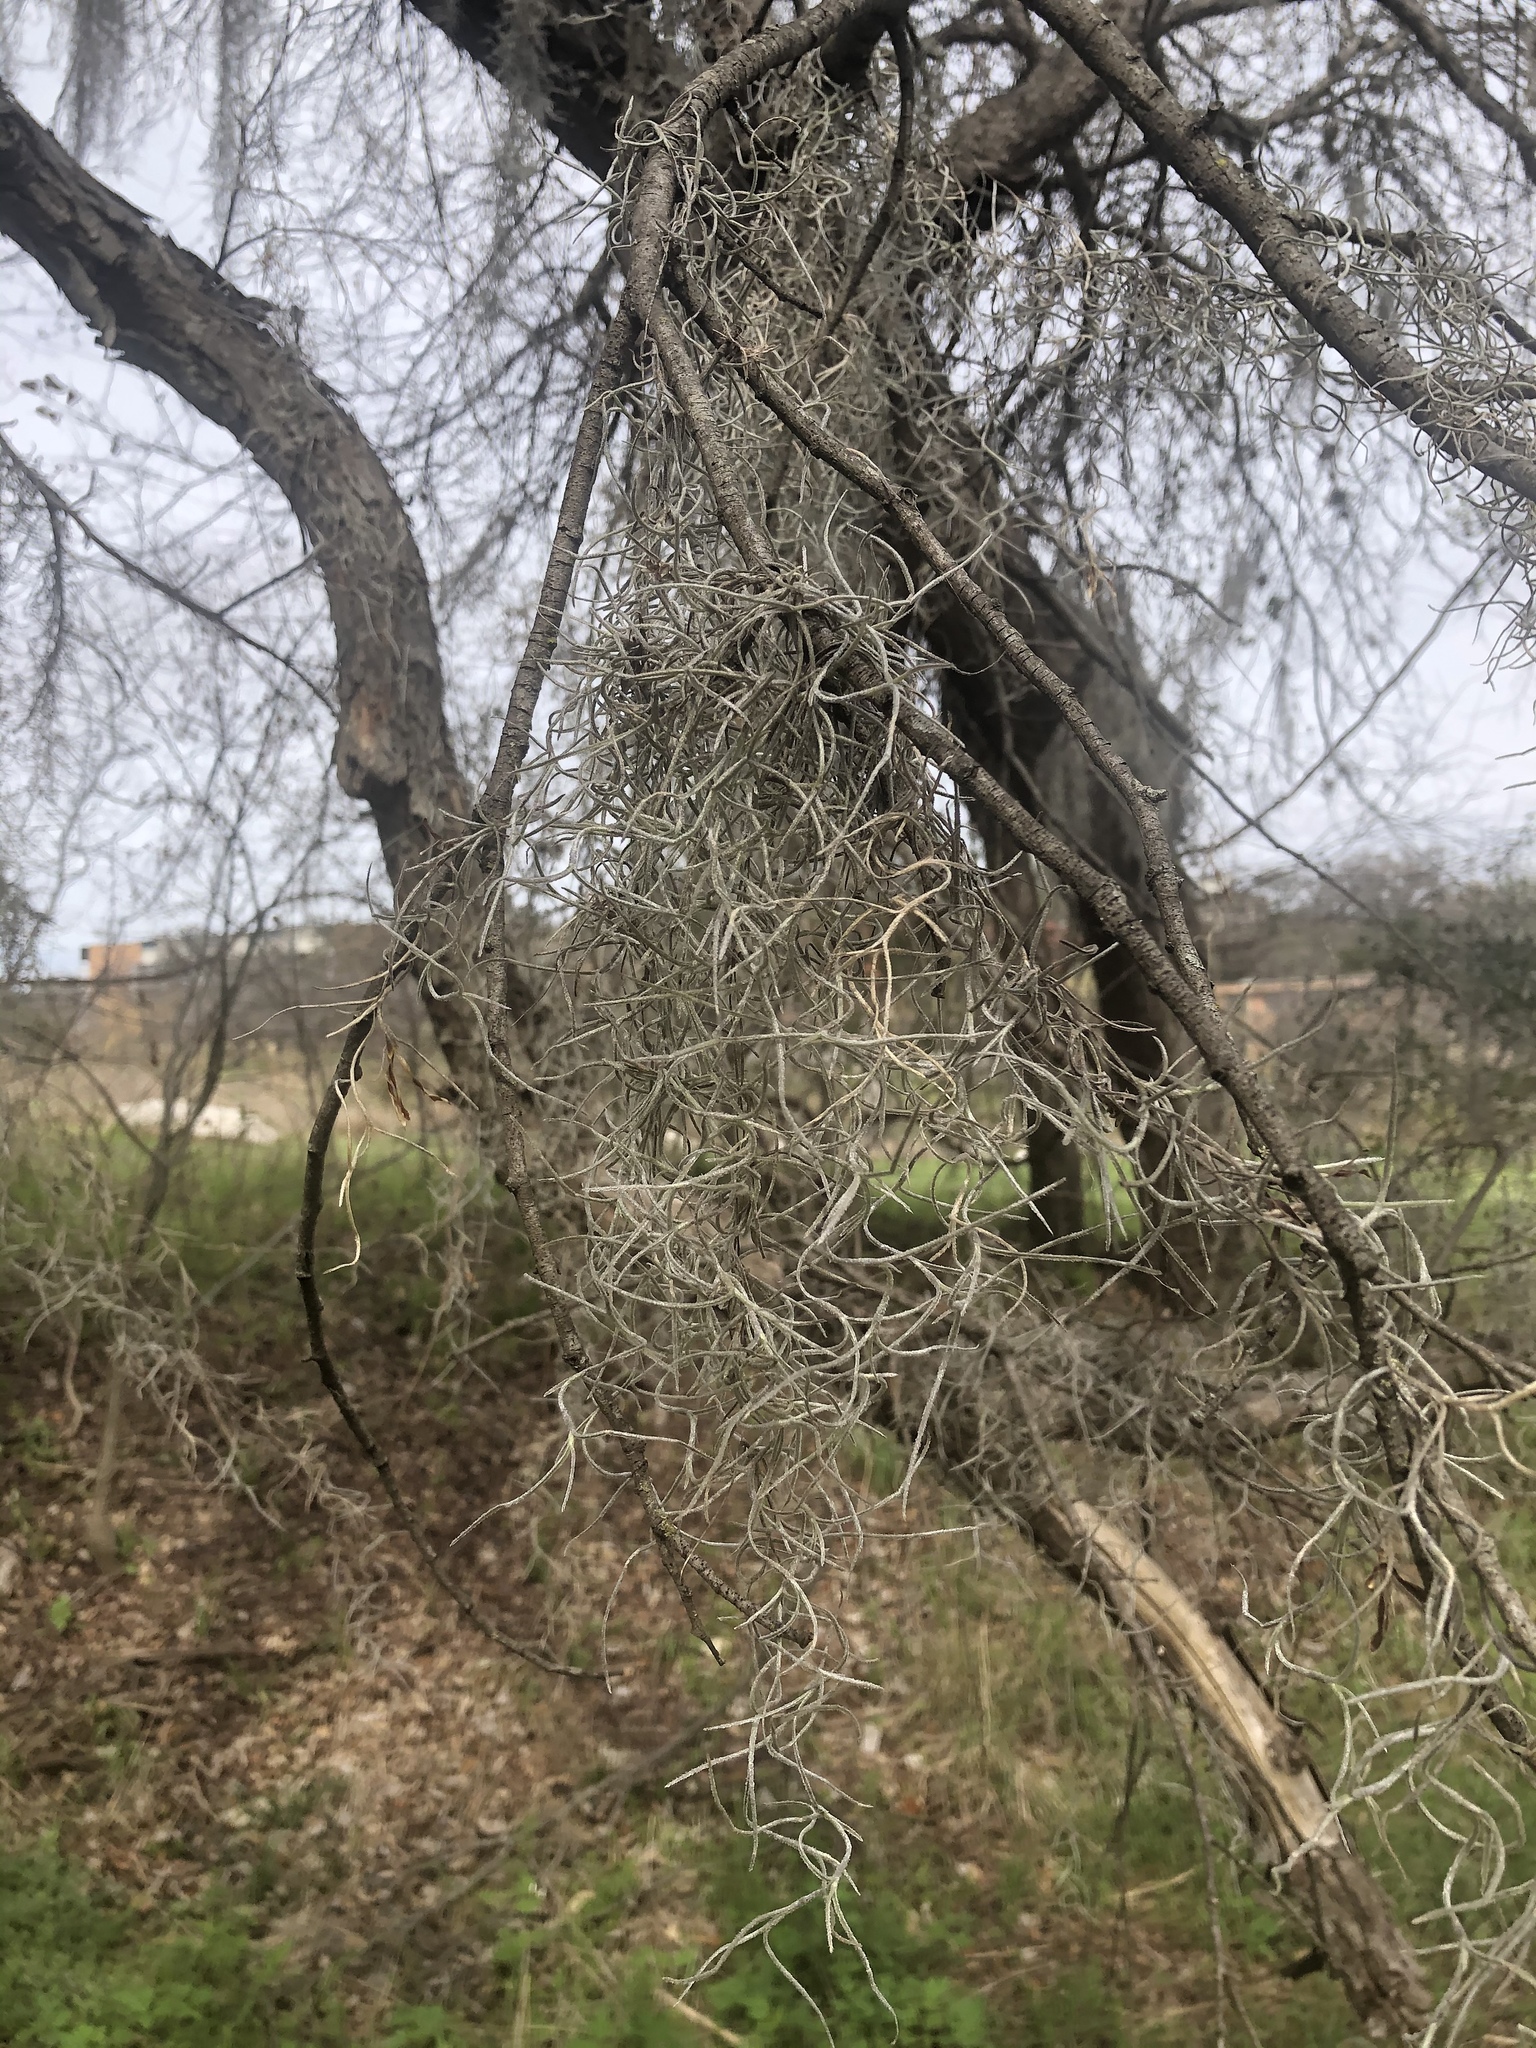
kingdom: Plantae
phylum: Tracheophyta
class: Liliopsida
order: Poales
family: Bromeliaceae
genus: Tillandsia
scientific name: Tillandsia usneoides
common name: Spanish moss
